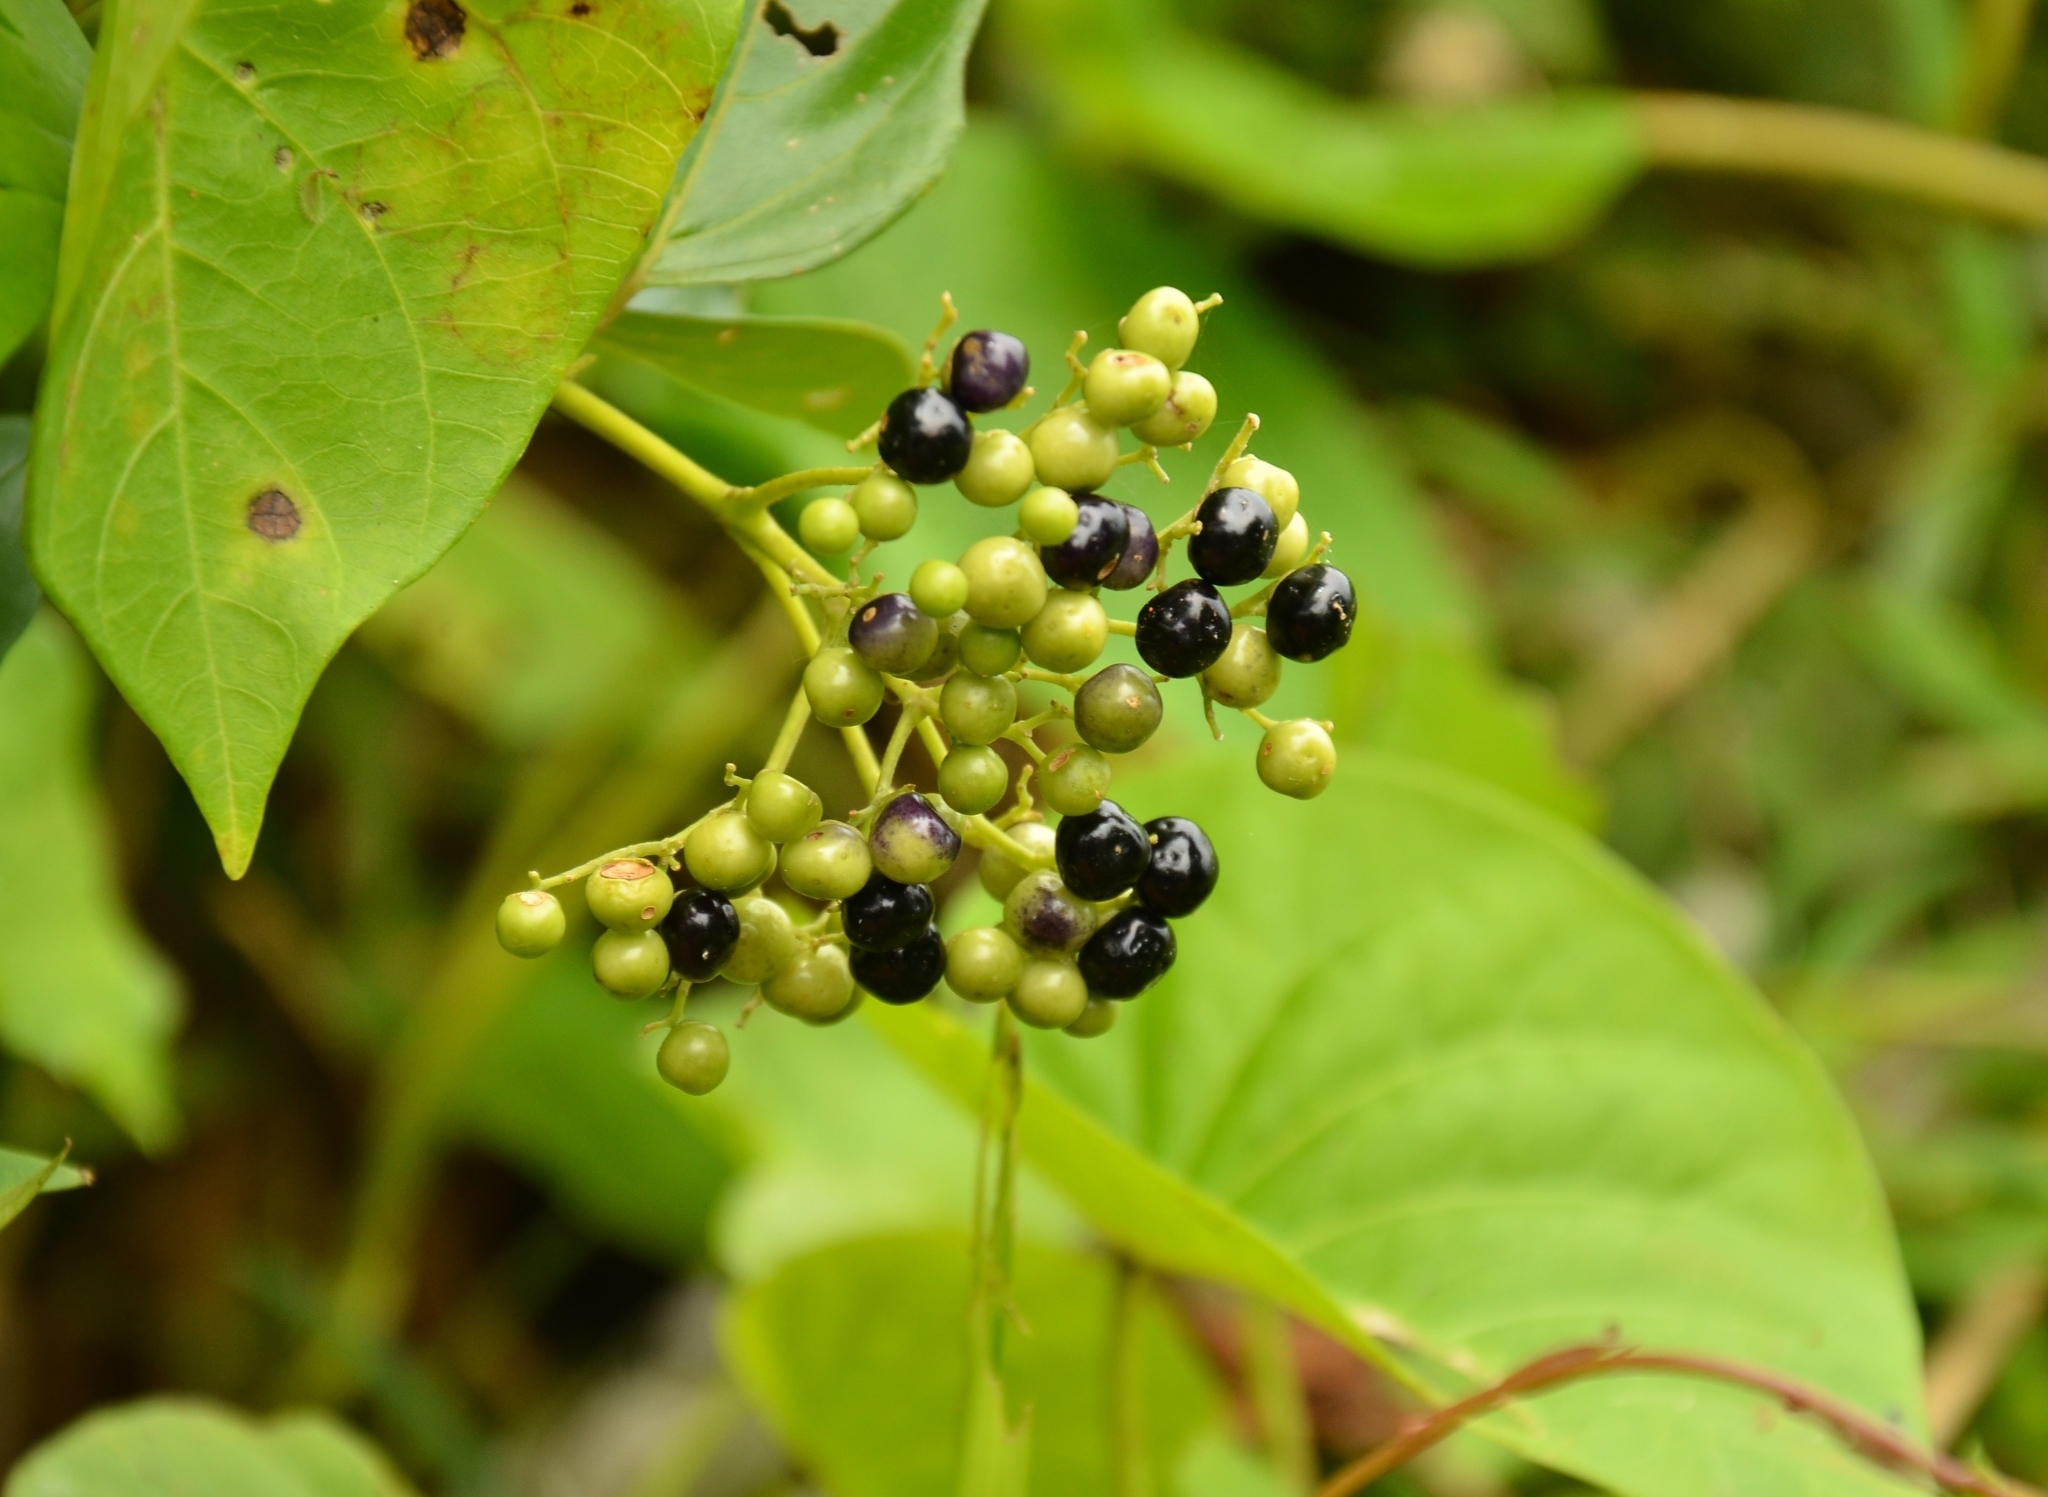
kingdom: Plantae
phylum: Tracheophyta
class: Magnoliopsida
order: Lamiales
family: Lamiaceae
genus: Premna
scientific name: Premna serratifolia
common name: Bastard guelder
